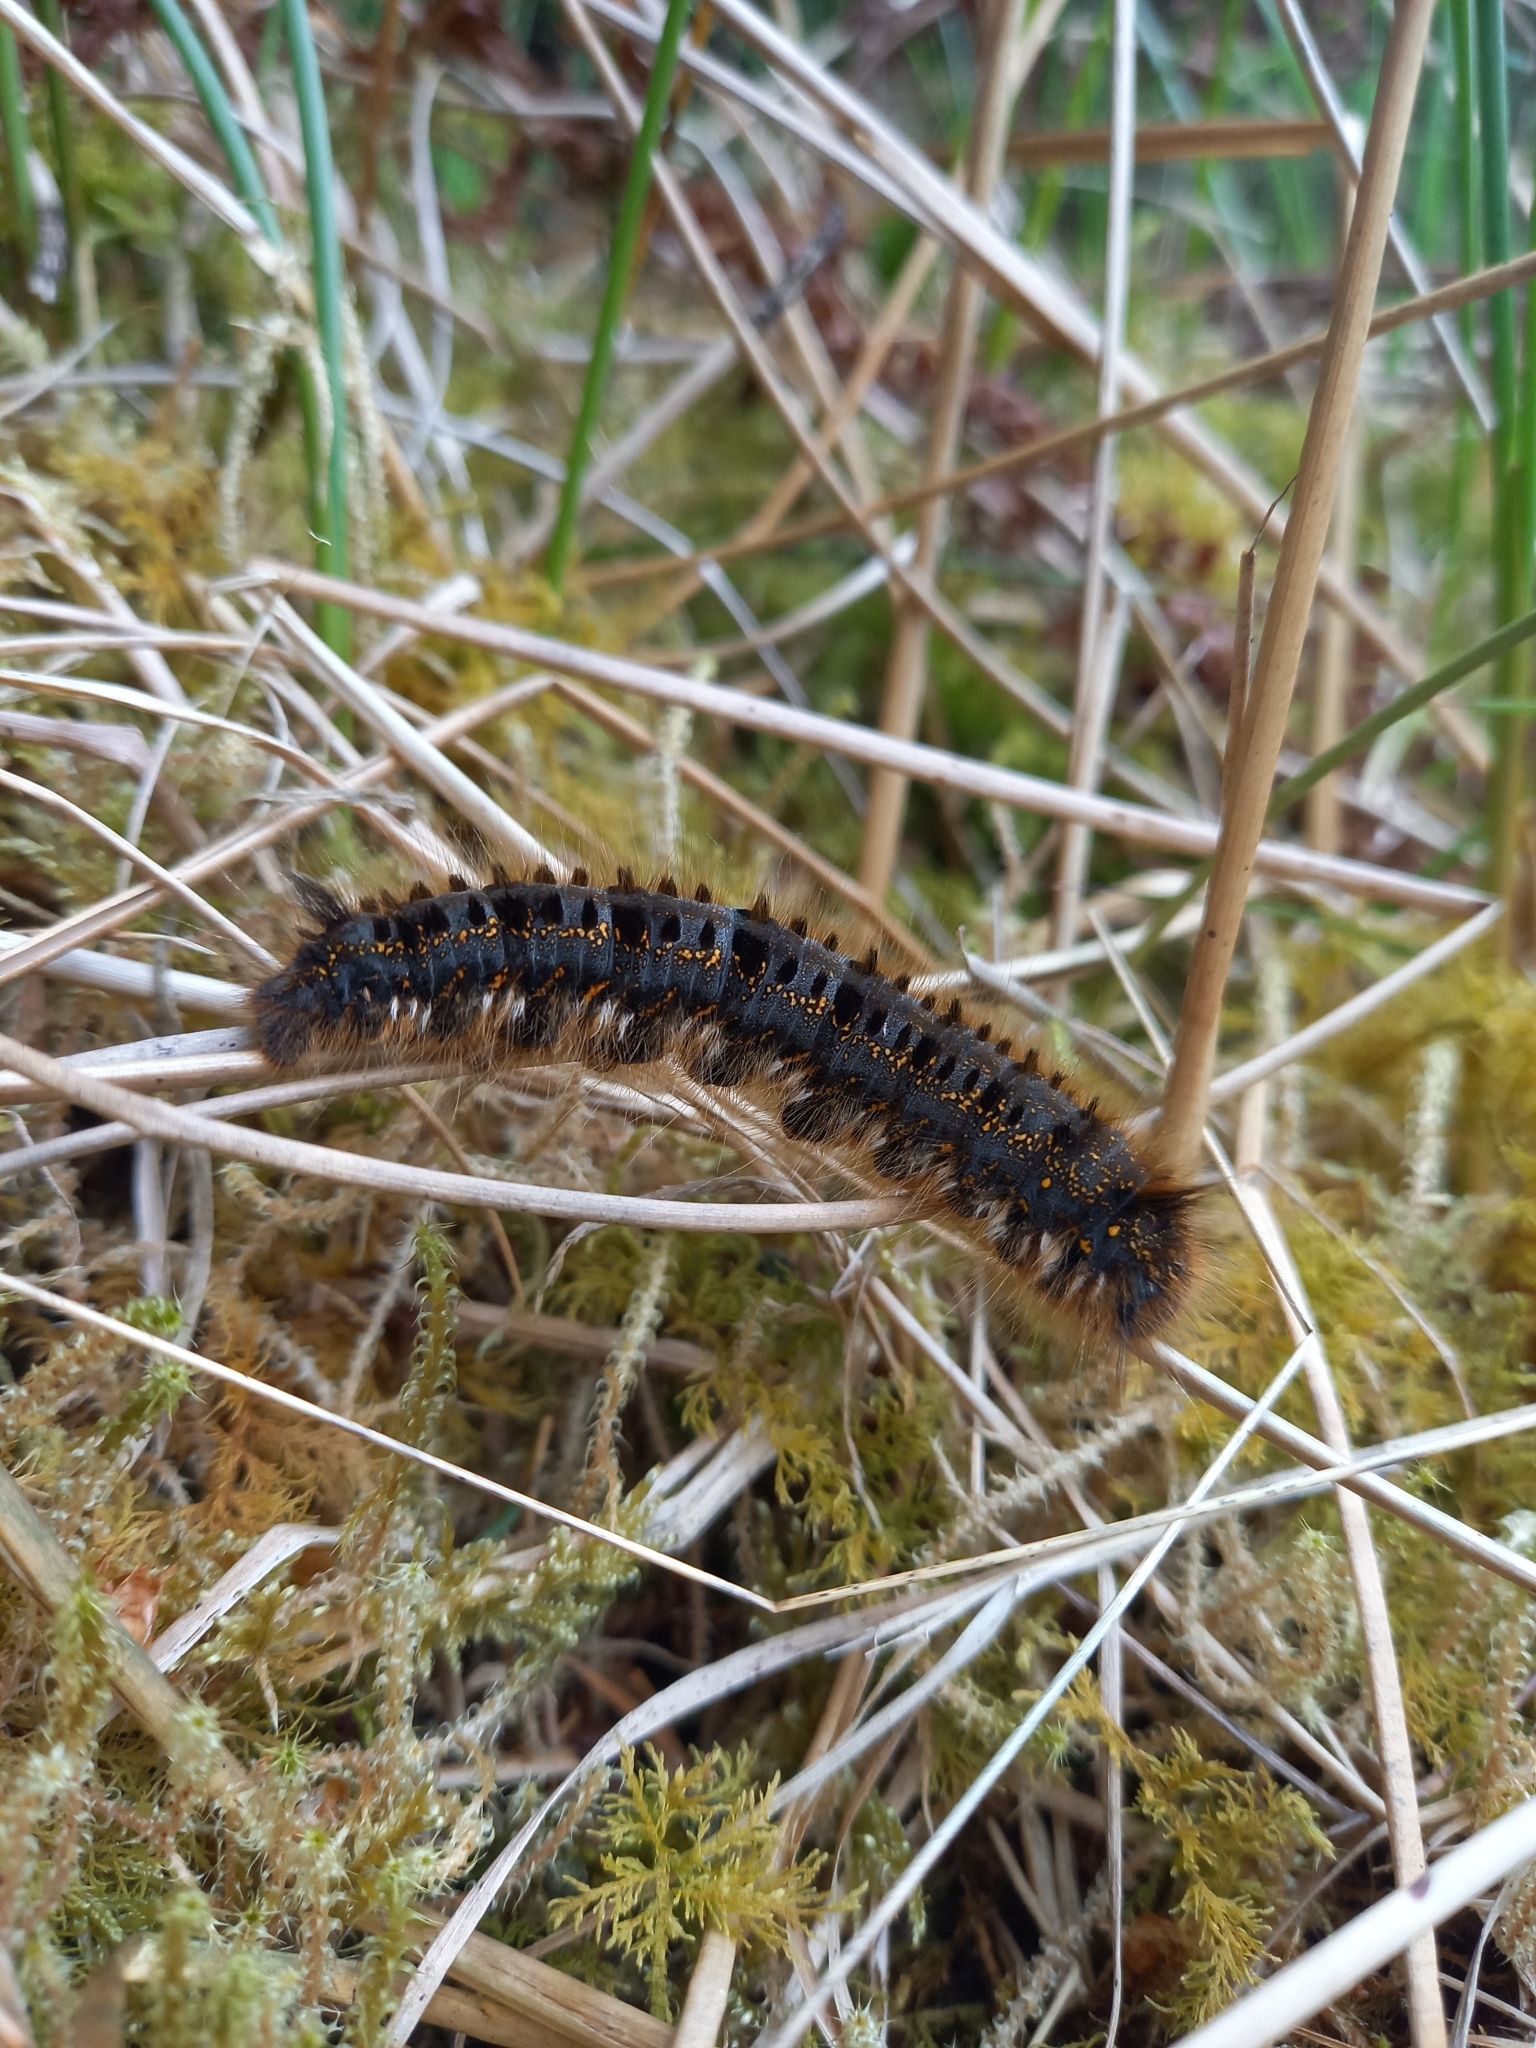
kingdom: Animalia
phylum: Arthropoda
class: Insecta
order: Lepidoptera
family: Lasiocampidae
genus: Euthrix
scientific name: Euthrix potatoria
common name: Drinker
